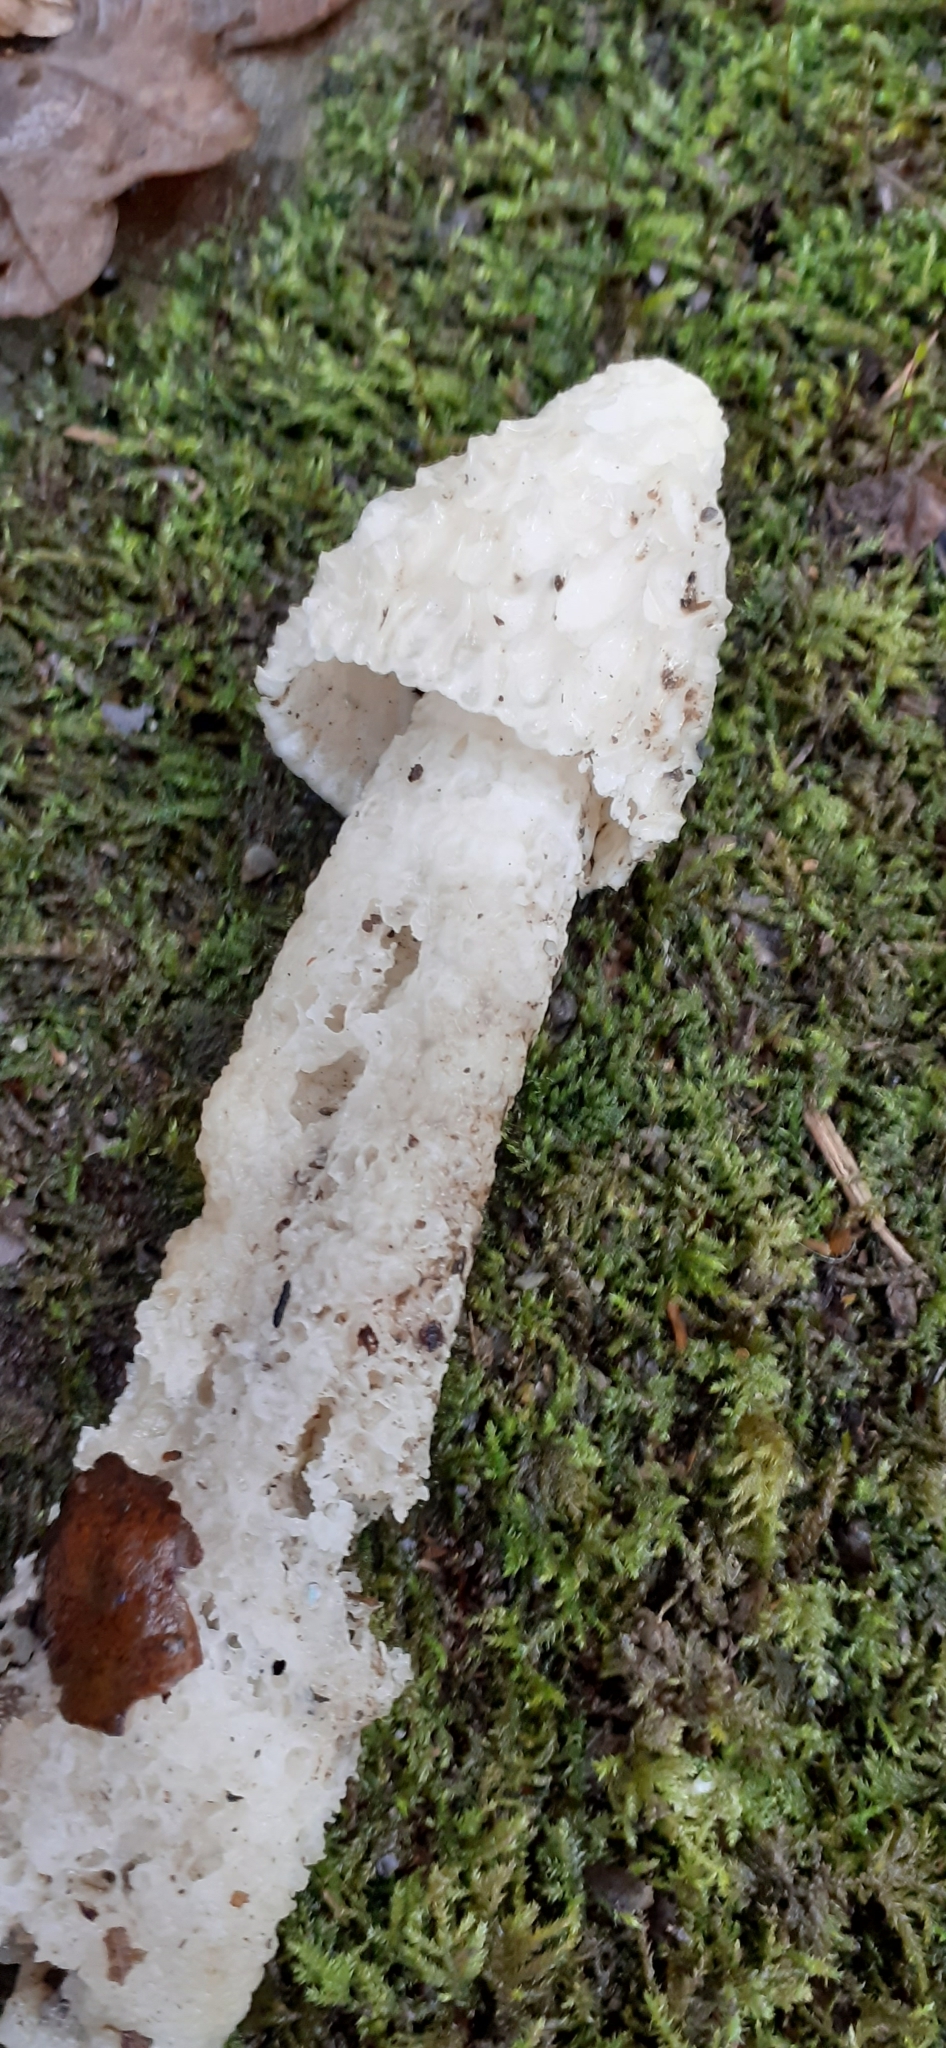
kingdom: Fungi
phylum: Basidiomycota
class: Agaricomycetes
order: Phallales
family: Phallaceae
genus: Phallus
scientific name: Phallus impudicus
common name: Common stinkhorn
